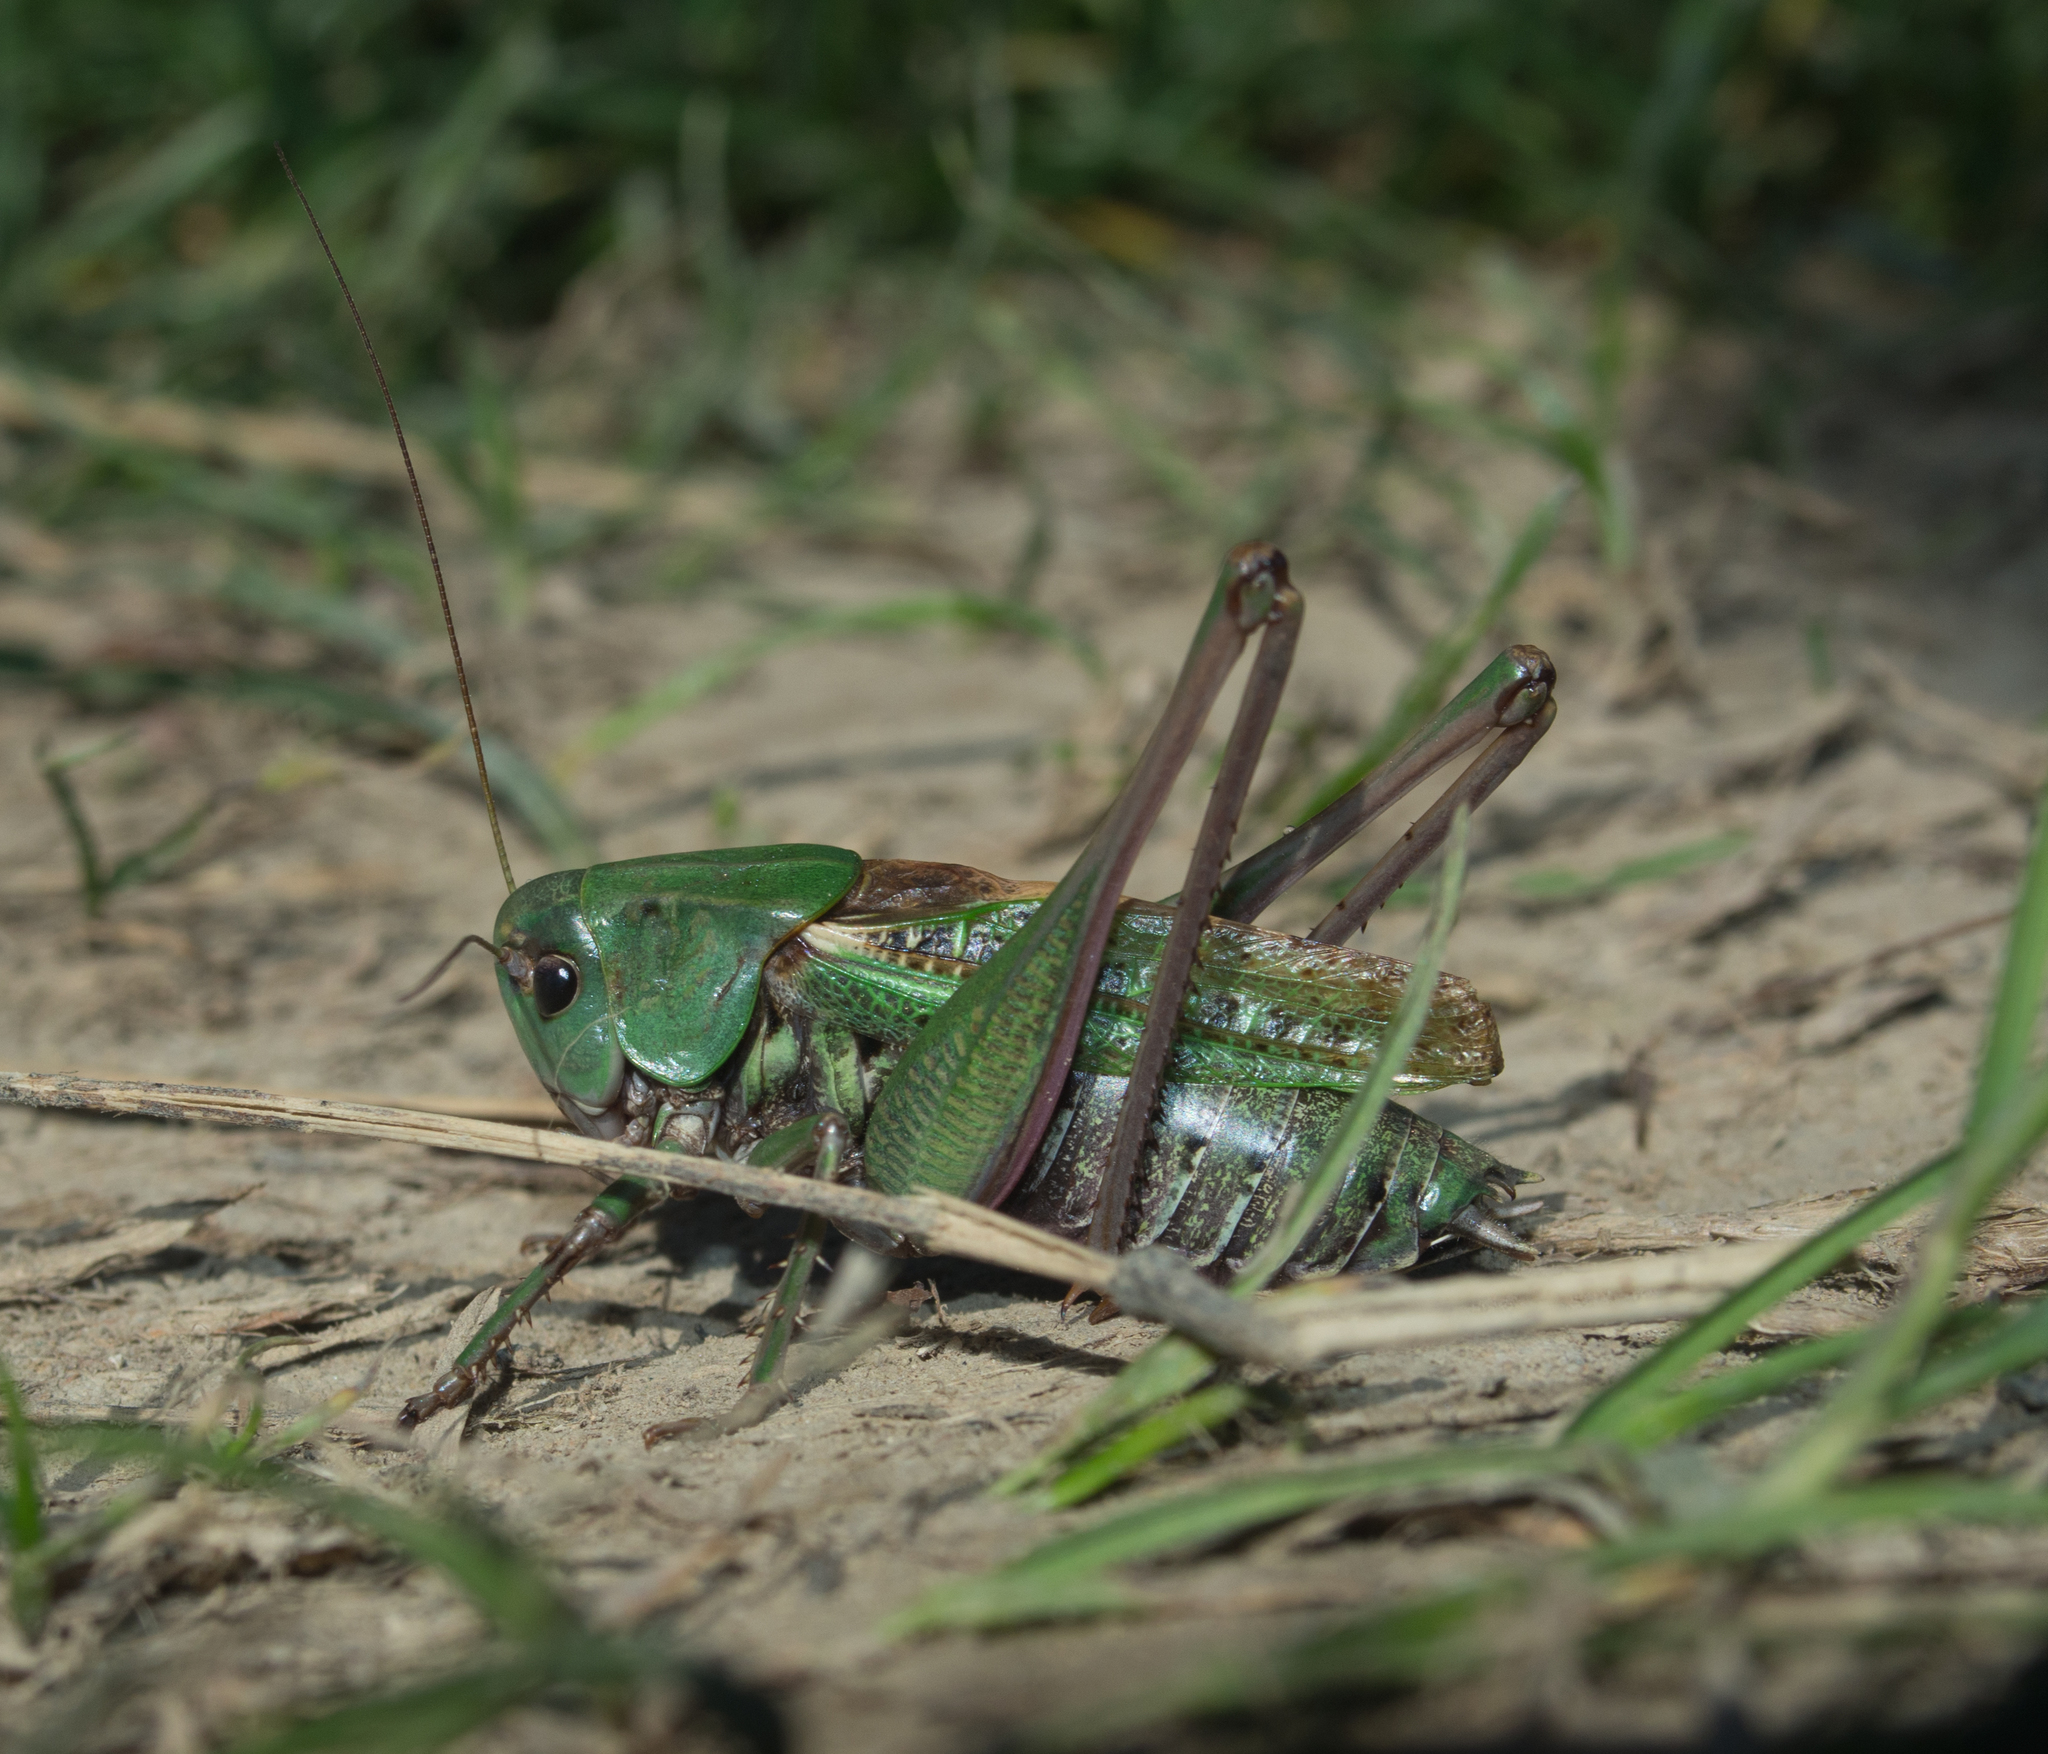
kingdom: Animalia
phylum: Arthropoda
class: Insecta
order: Orthoptera
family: Tettigoniidae
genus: Decticus
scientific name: Decticus verrucivorus
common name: Wart-biter
